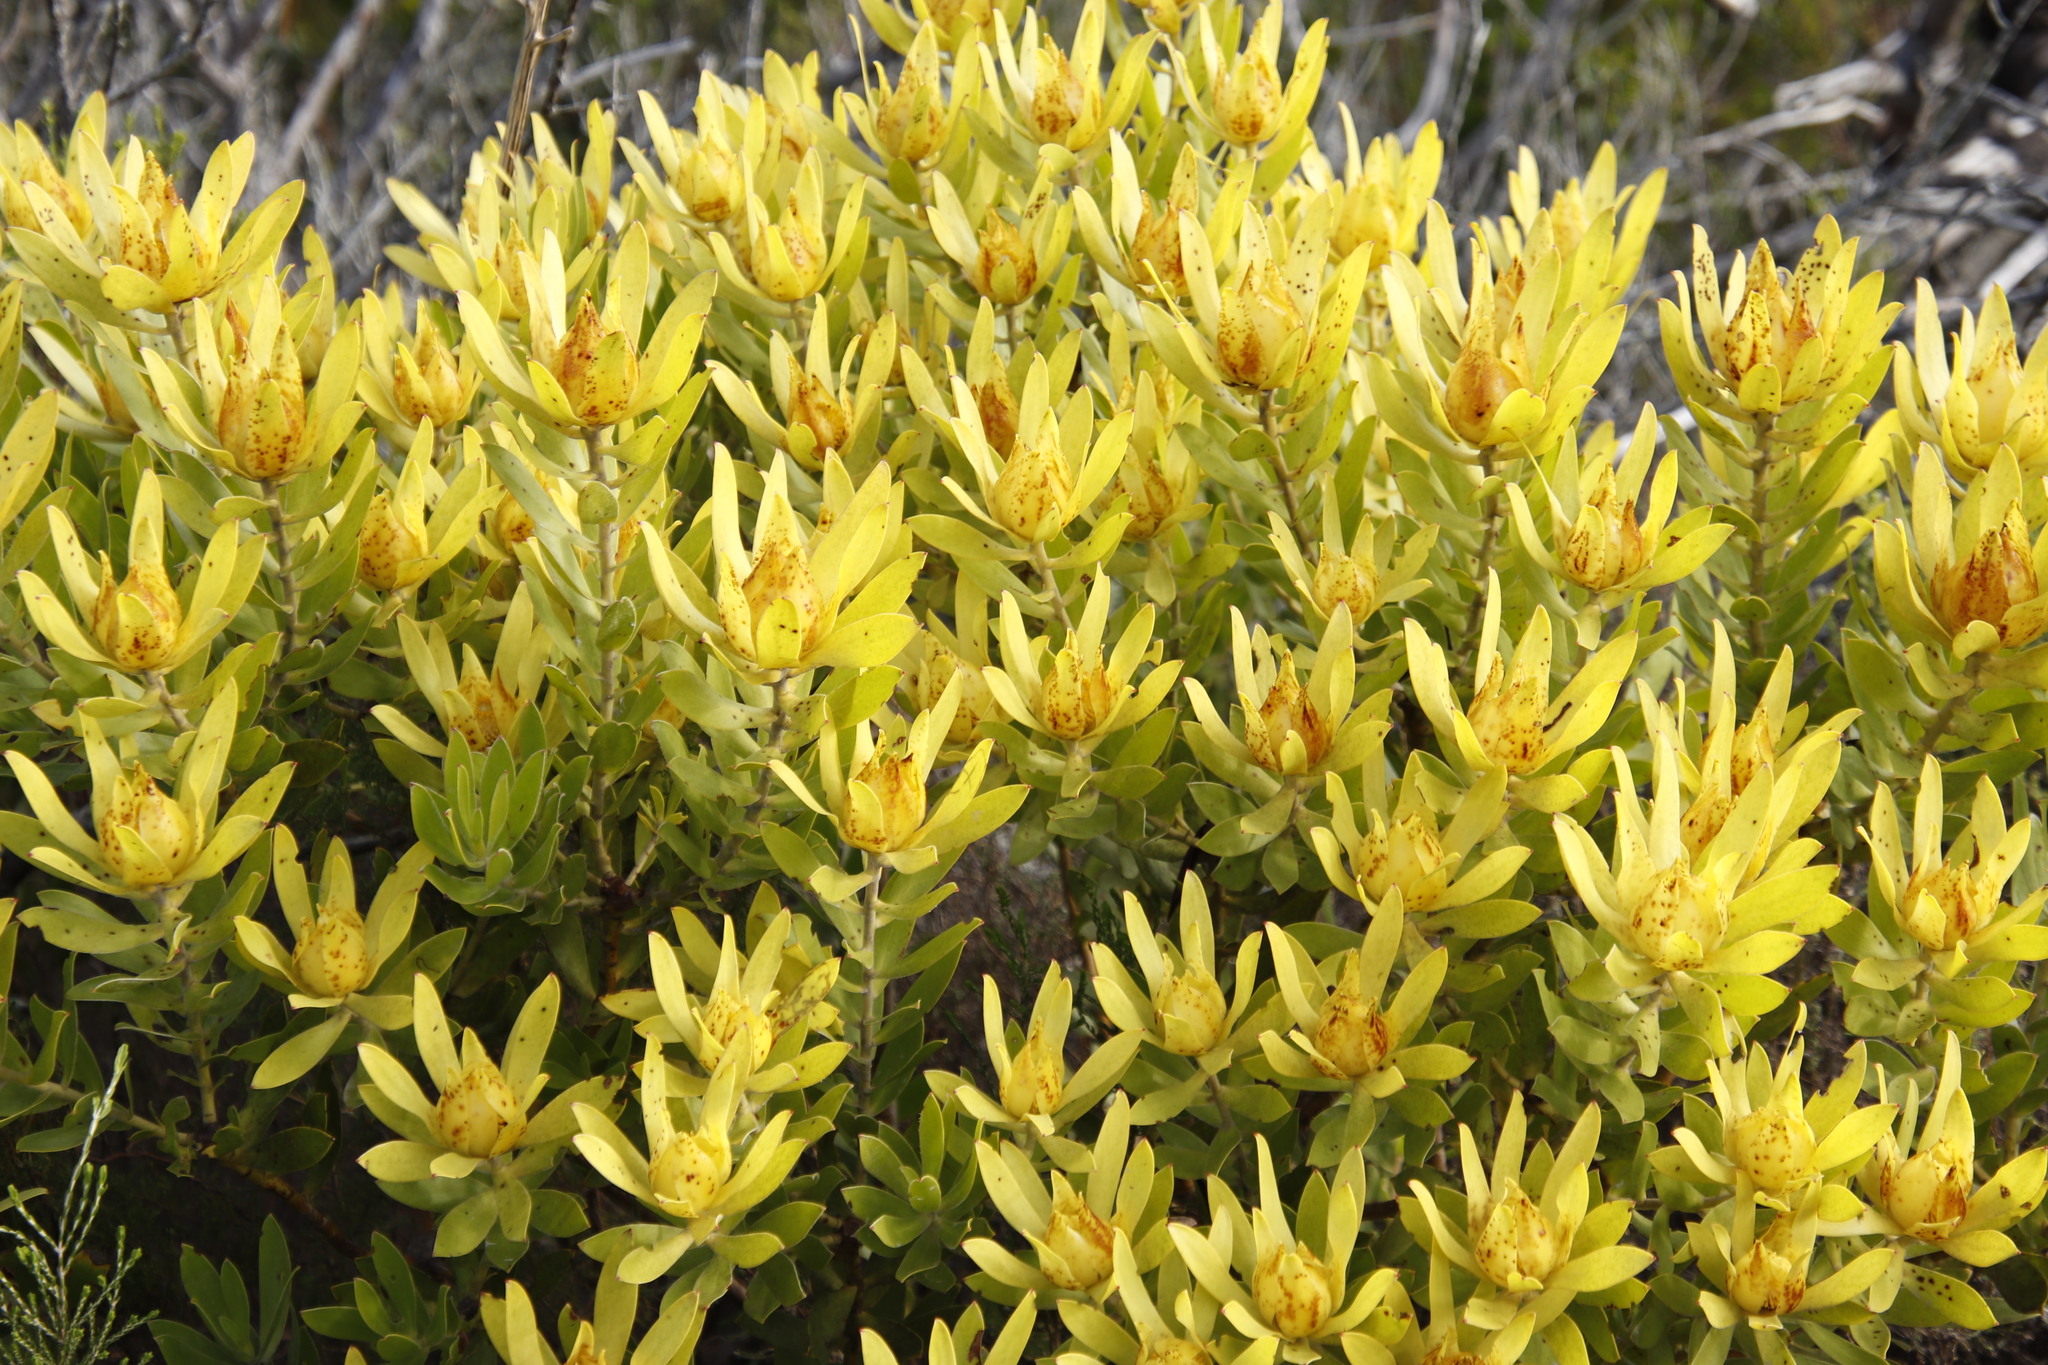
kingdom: Plantae
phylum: Tracheophyta
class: Magnoliopsida
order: Proteales
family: Proteaceae
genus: Leucadendron
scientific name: Leucadendron laureolum
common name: Golden sunshinebush
